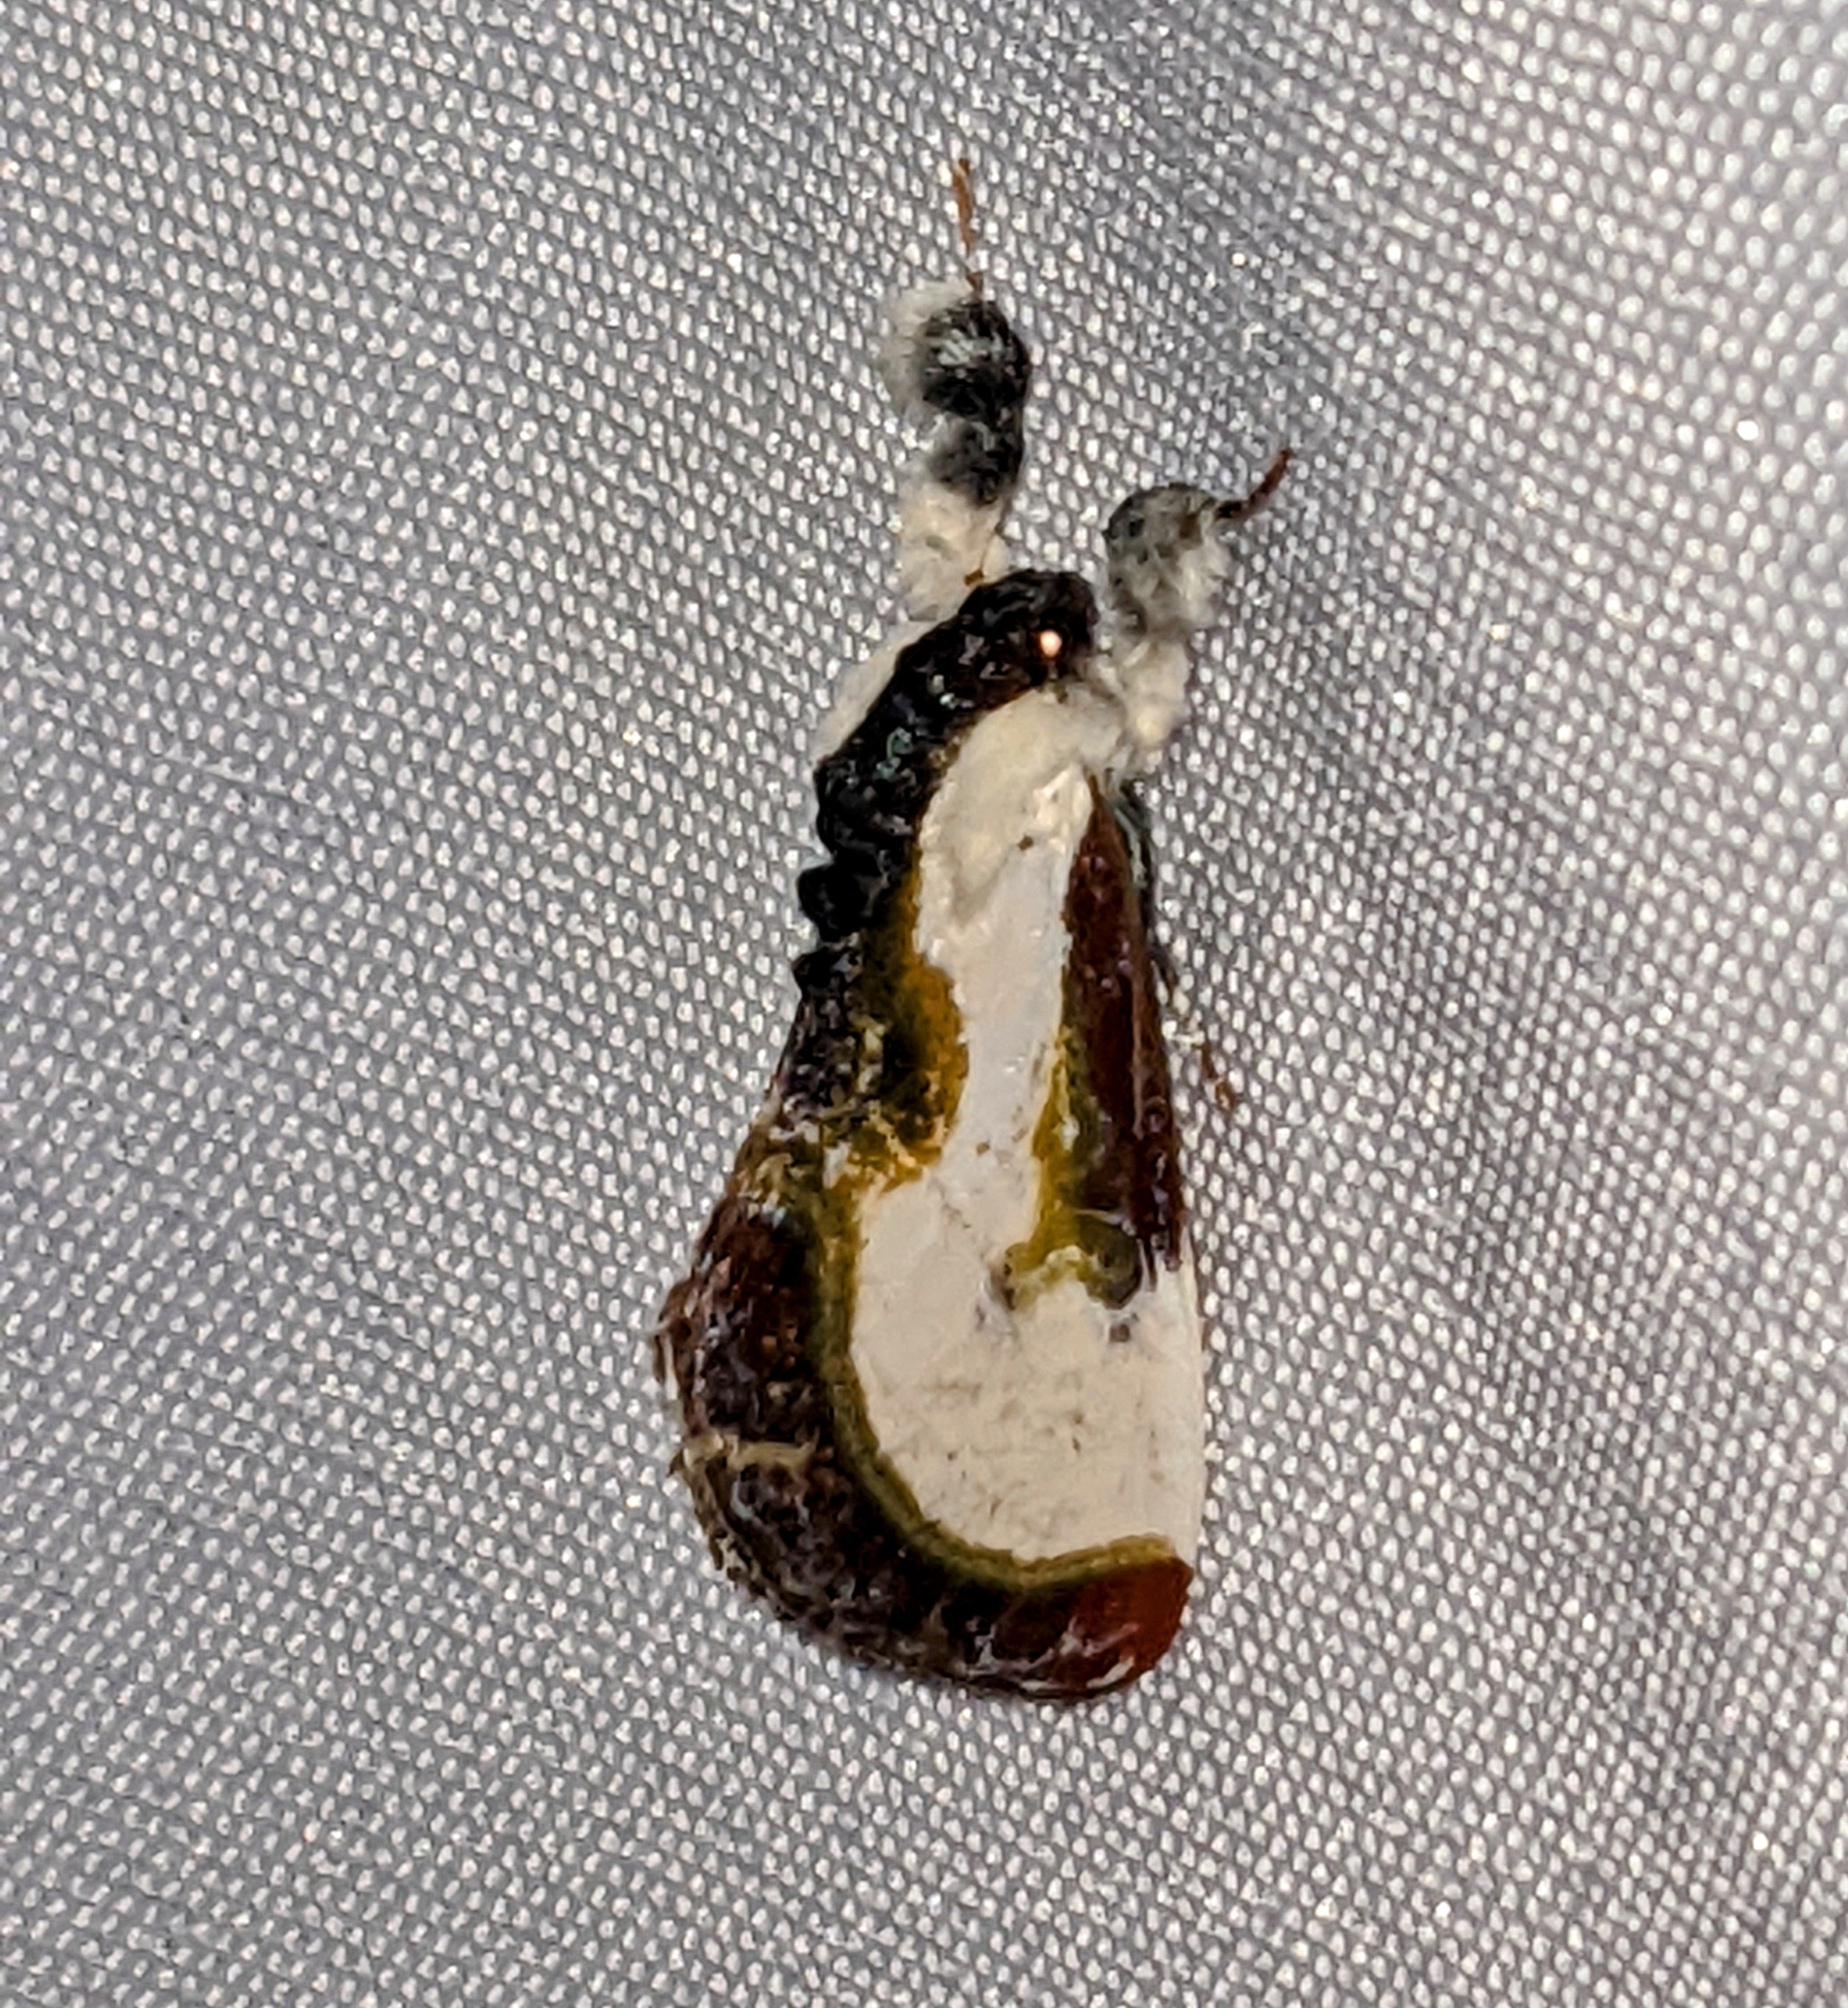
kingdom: Animalia
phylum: Arthropoda
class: Insecta
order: Lepidoptera
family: Noctuidae
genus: Eudryas
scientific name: Eudryas grata
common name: Beautiful wood-nymph
